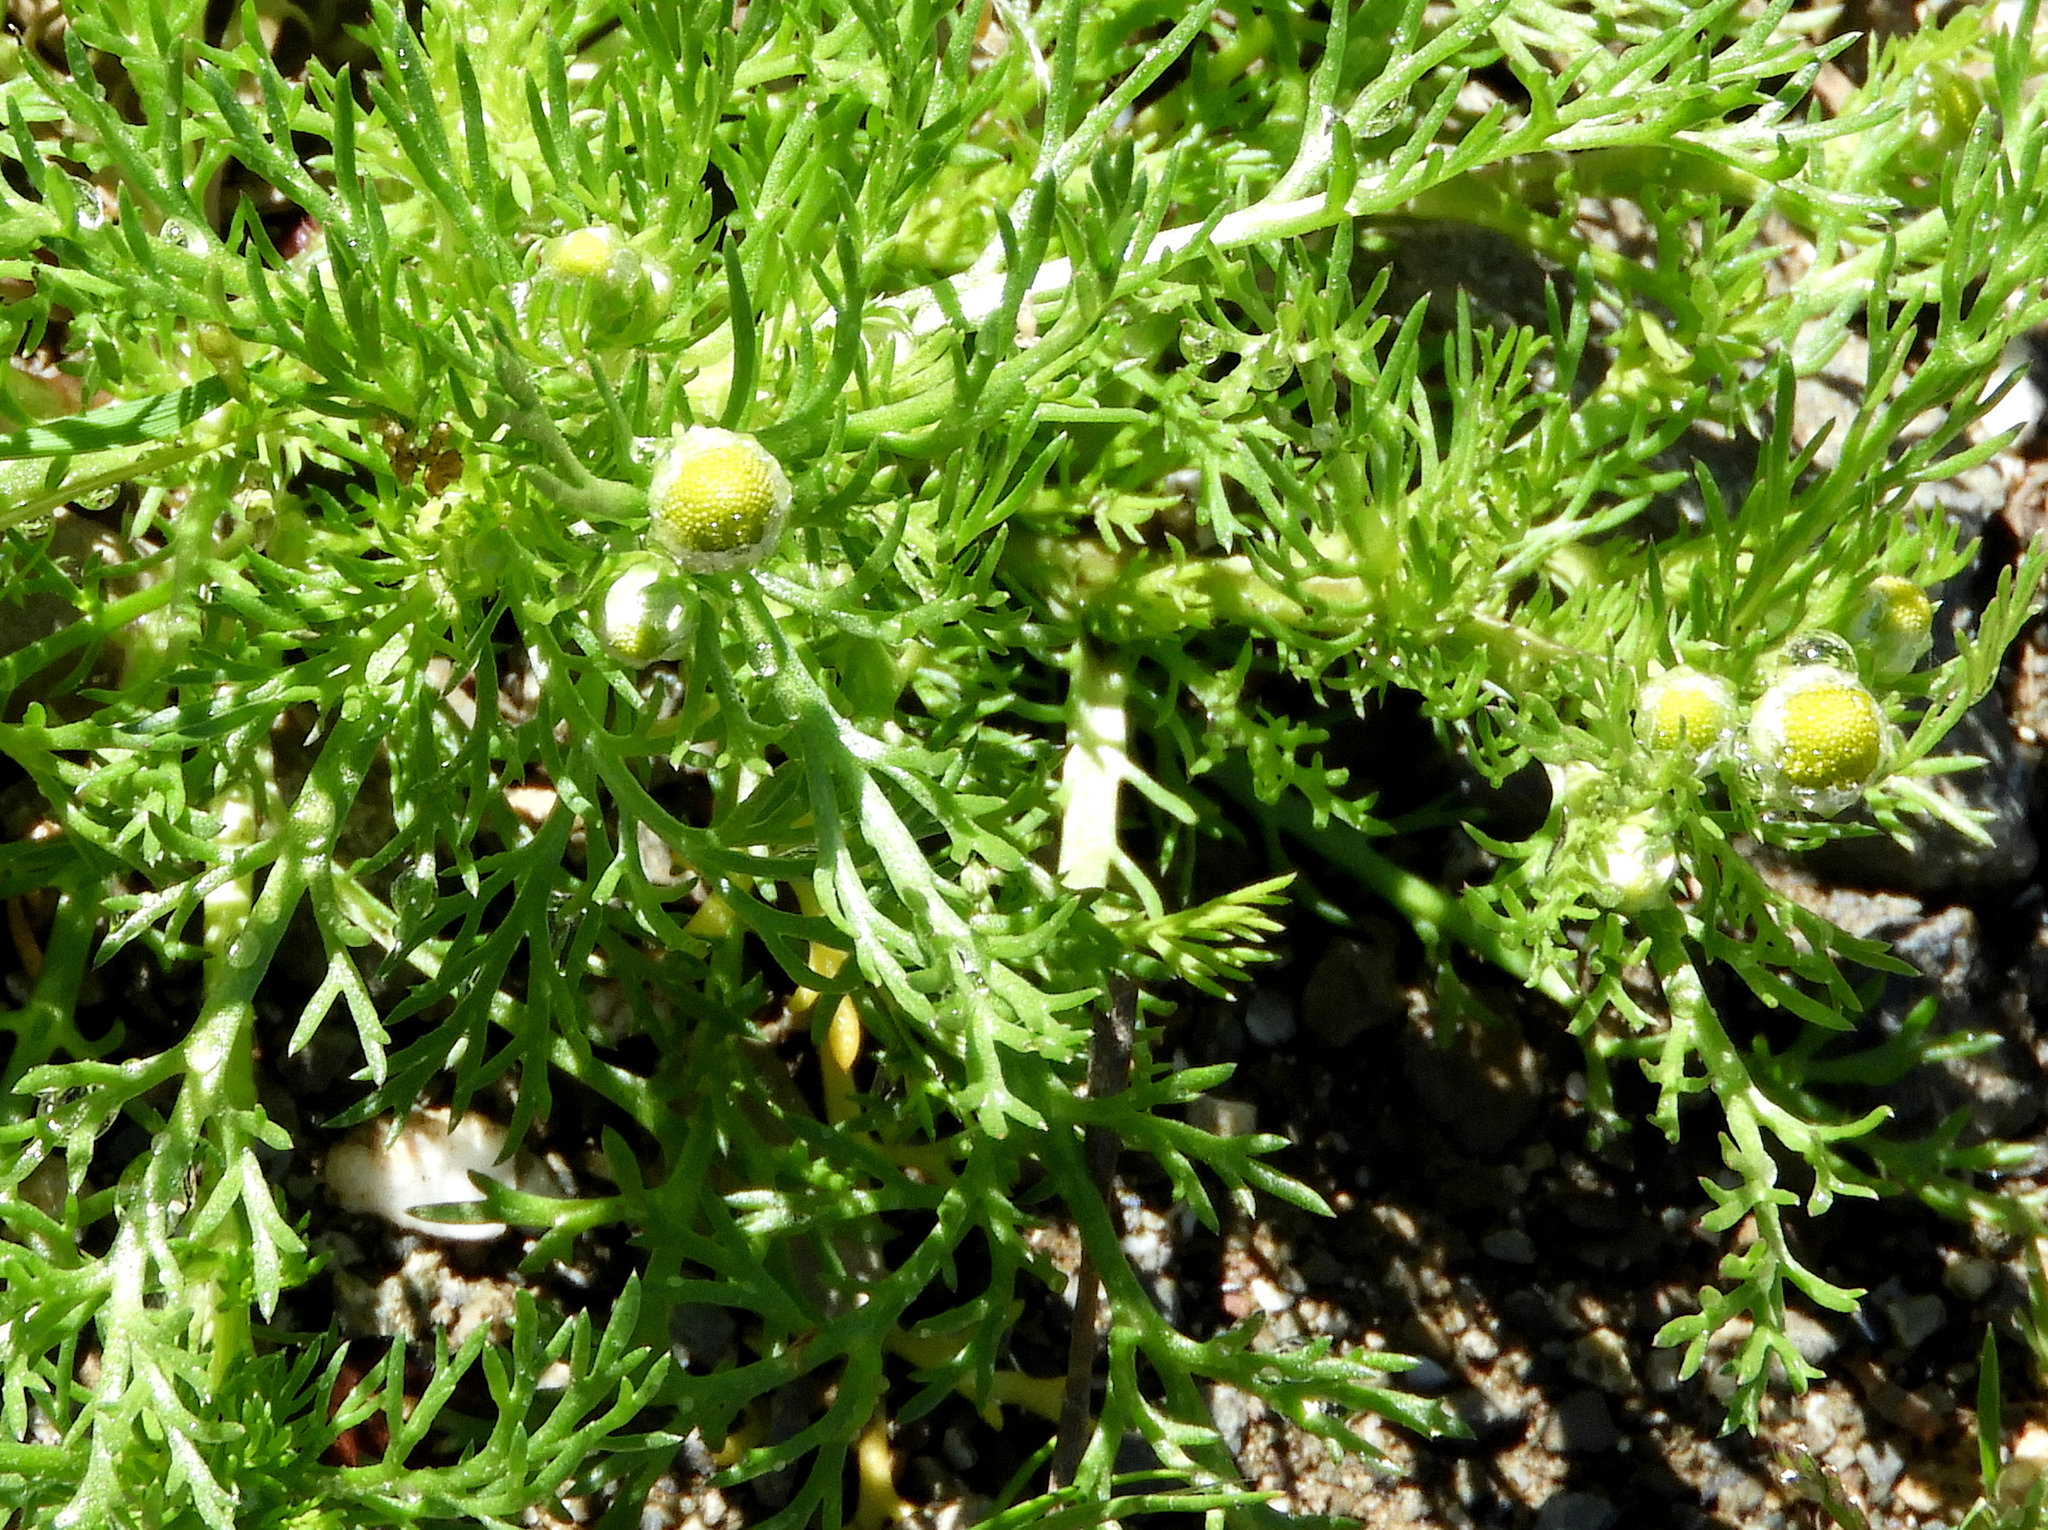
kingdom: Plantae
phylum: Tracheophyta
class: Magnoliopsida
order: Asterales
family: Asteraceae
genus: Matricaria
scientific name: Matricaria discoidea
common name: Disc mayweed
